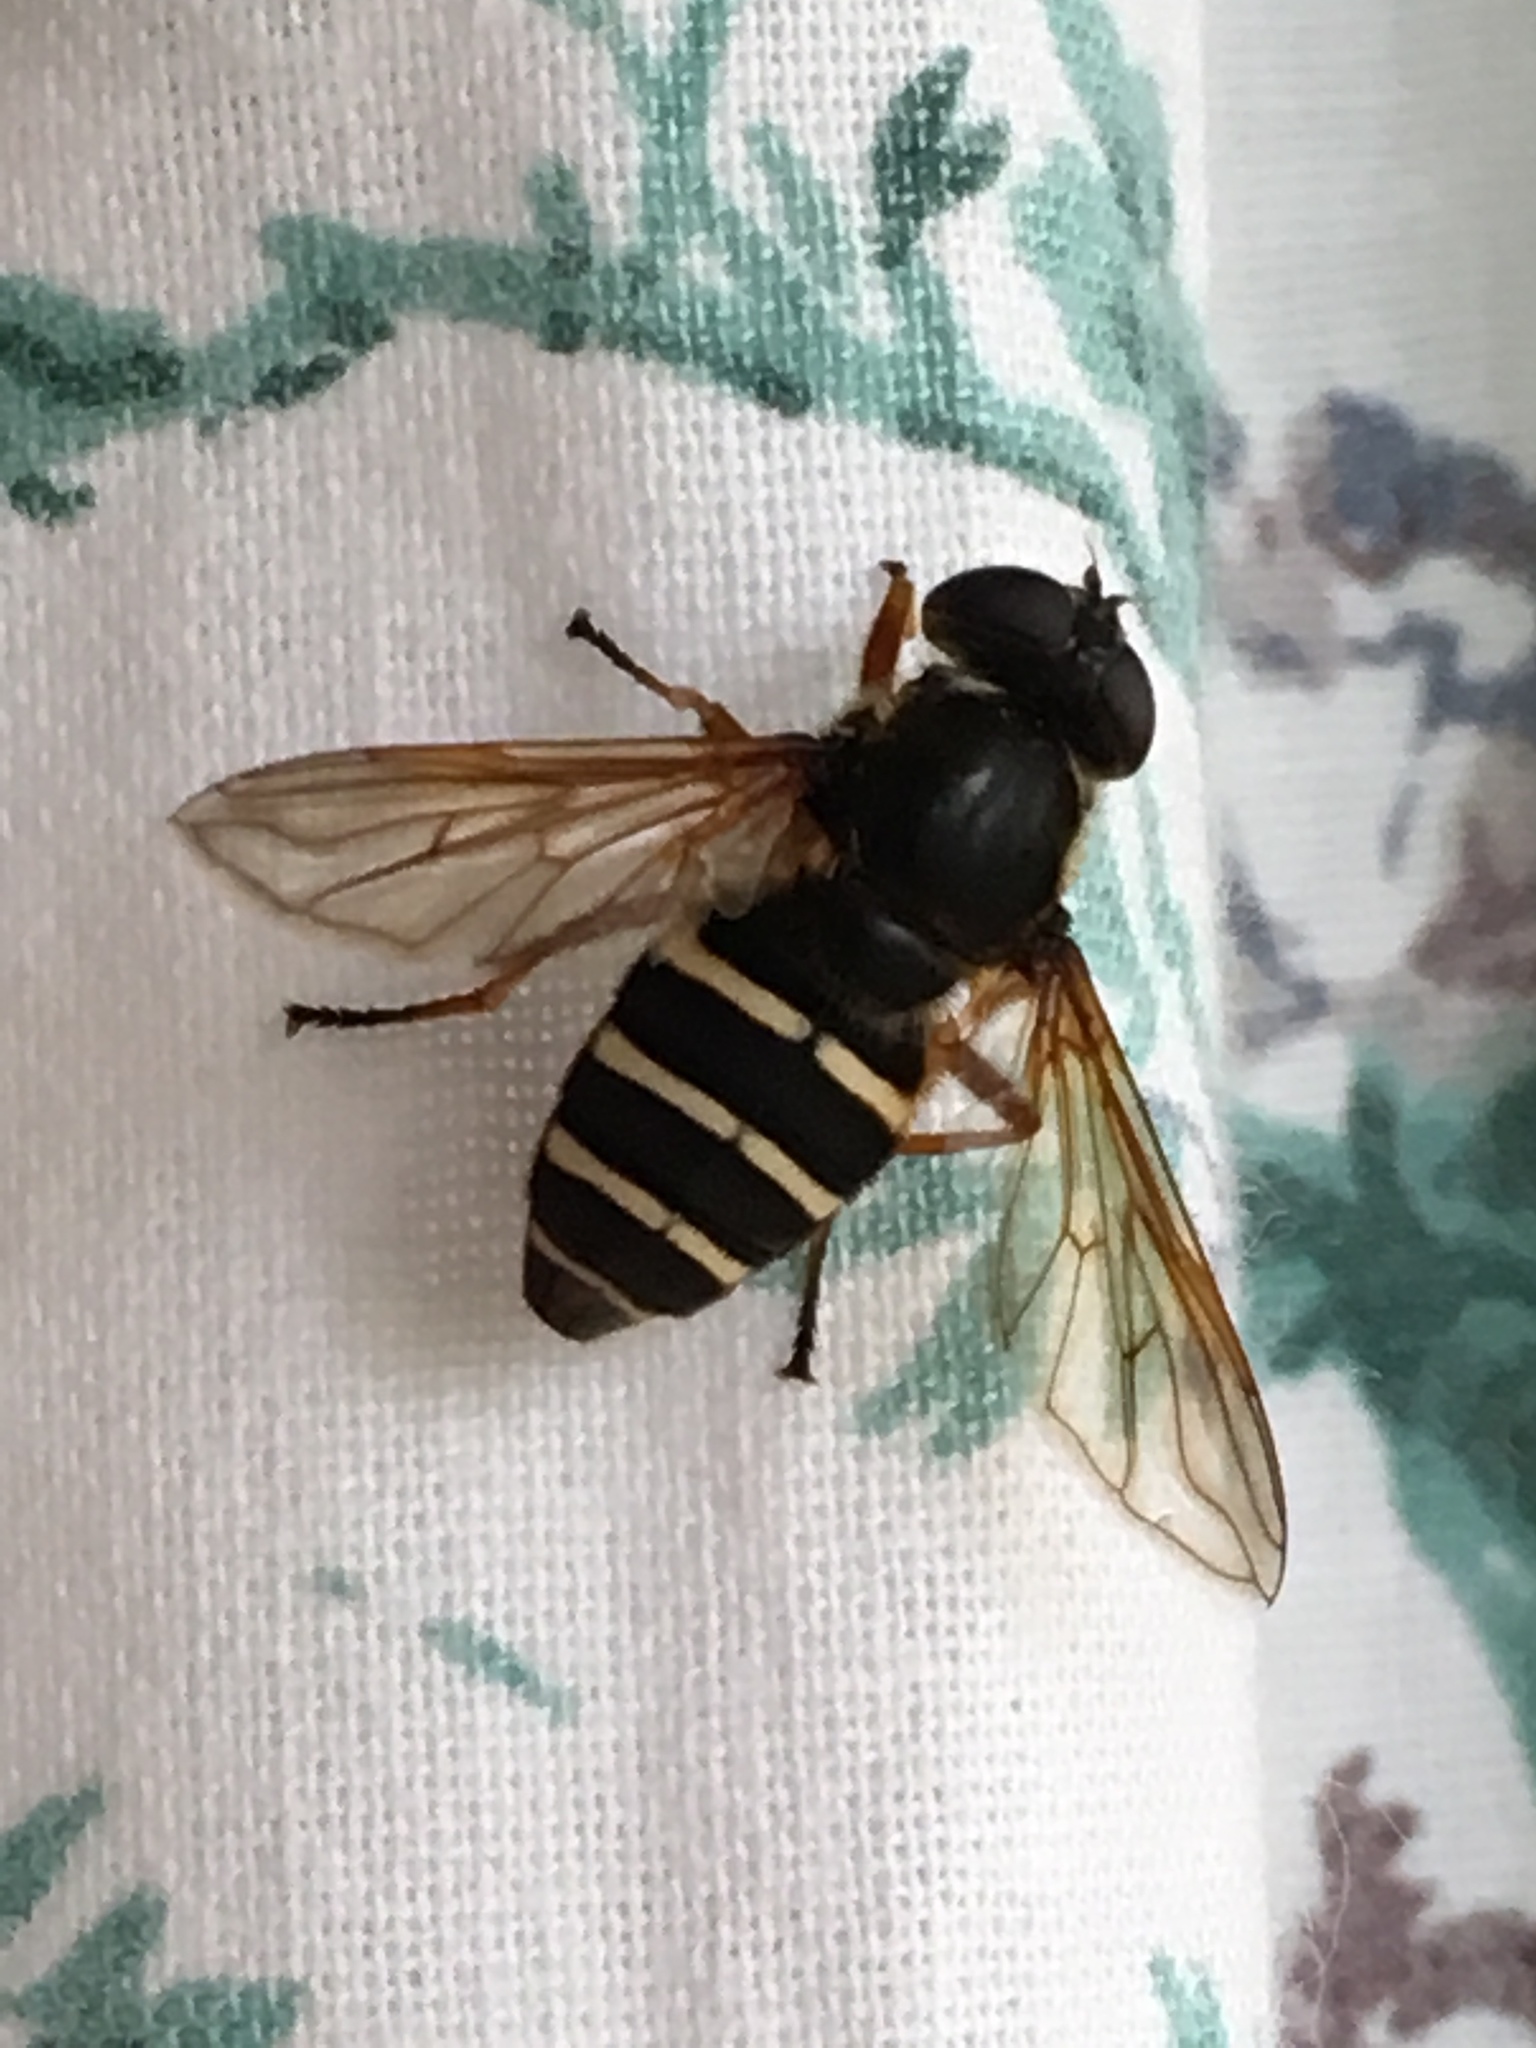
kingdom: Animalia
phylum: Arthropoda
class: Insecta
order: Diptera
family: Syrphidae
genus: Sericomyia
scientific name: Sericomyia nigra
